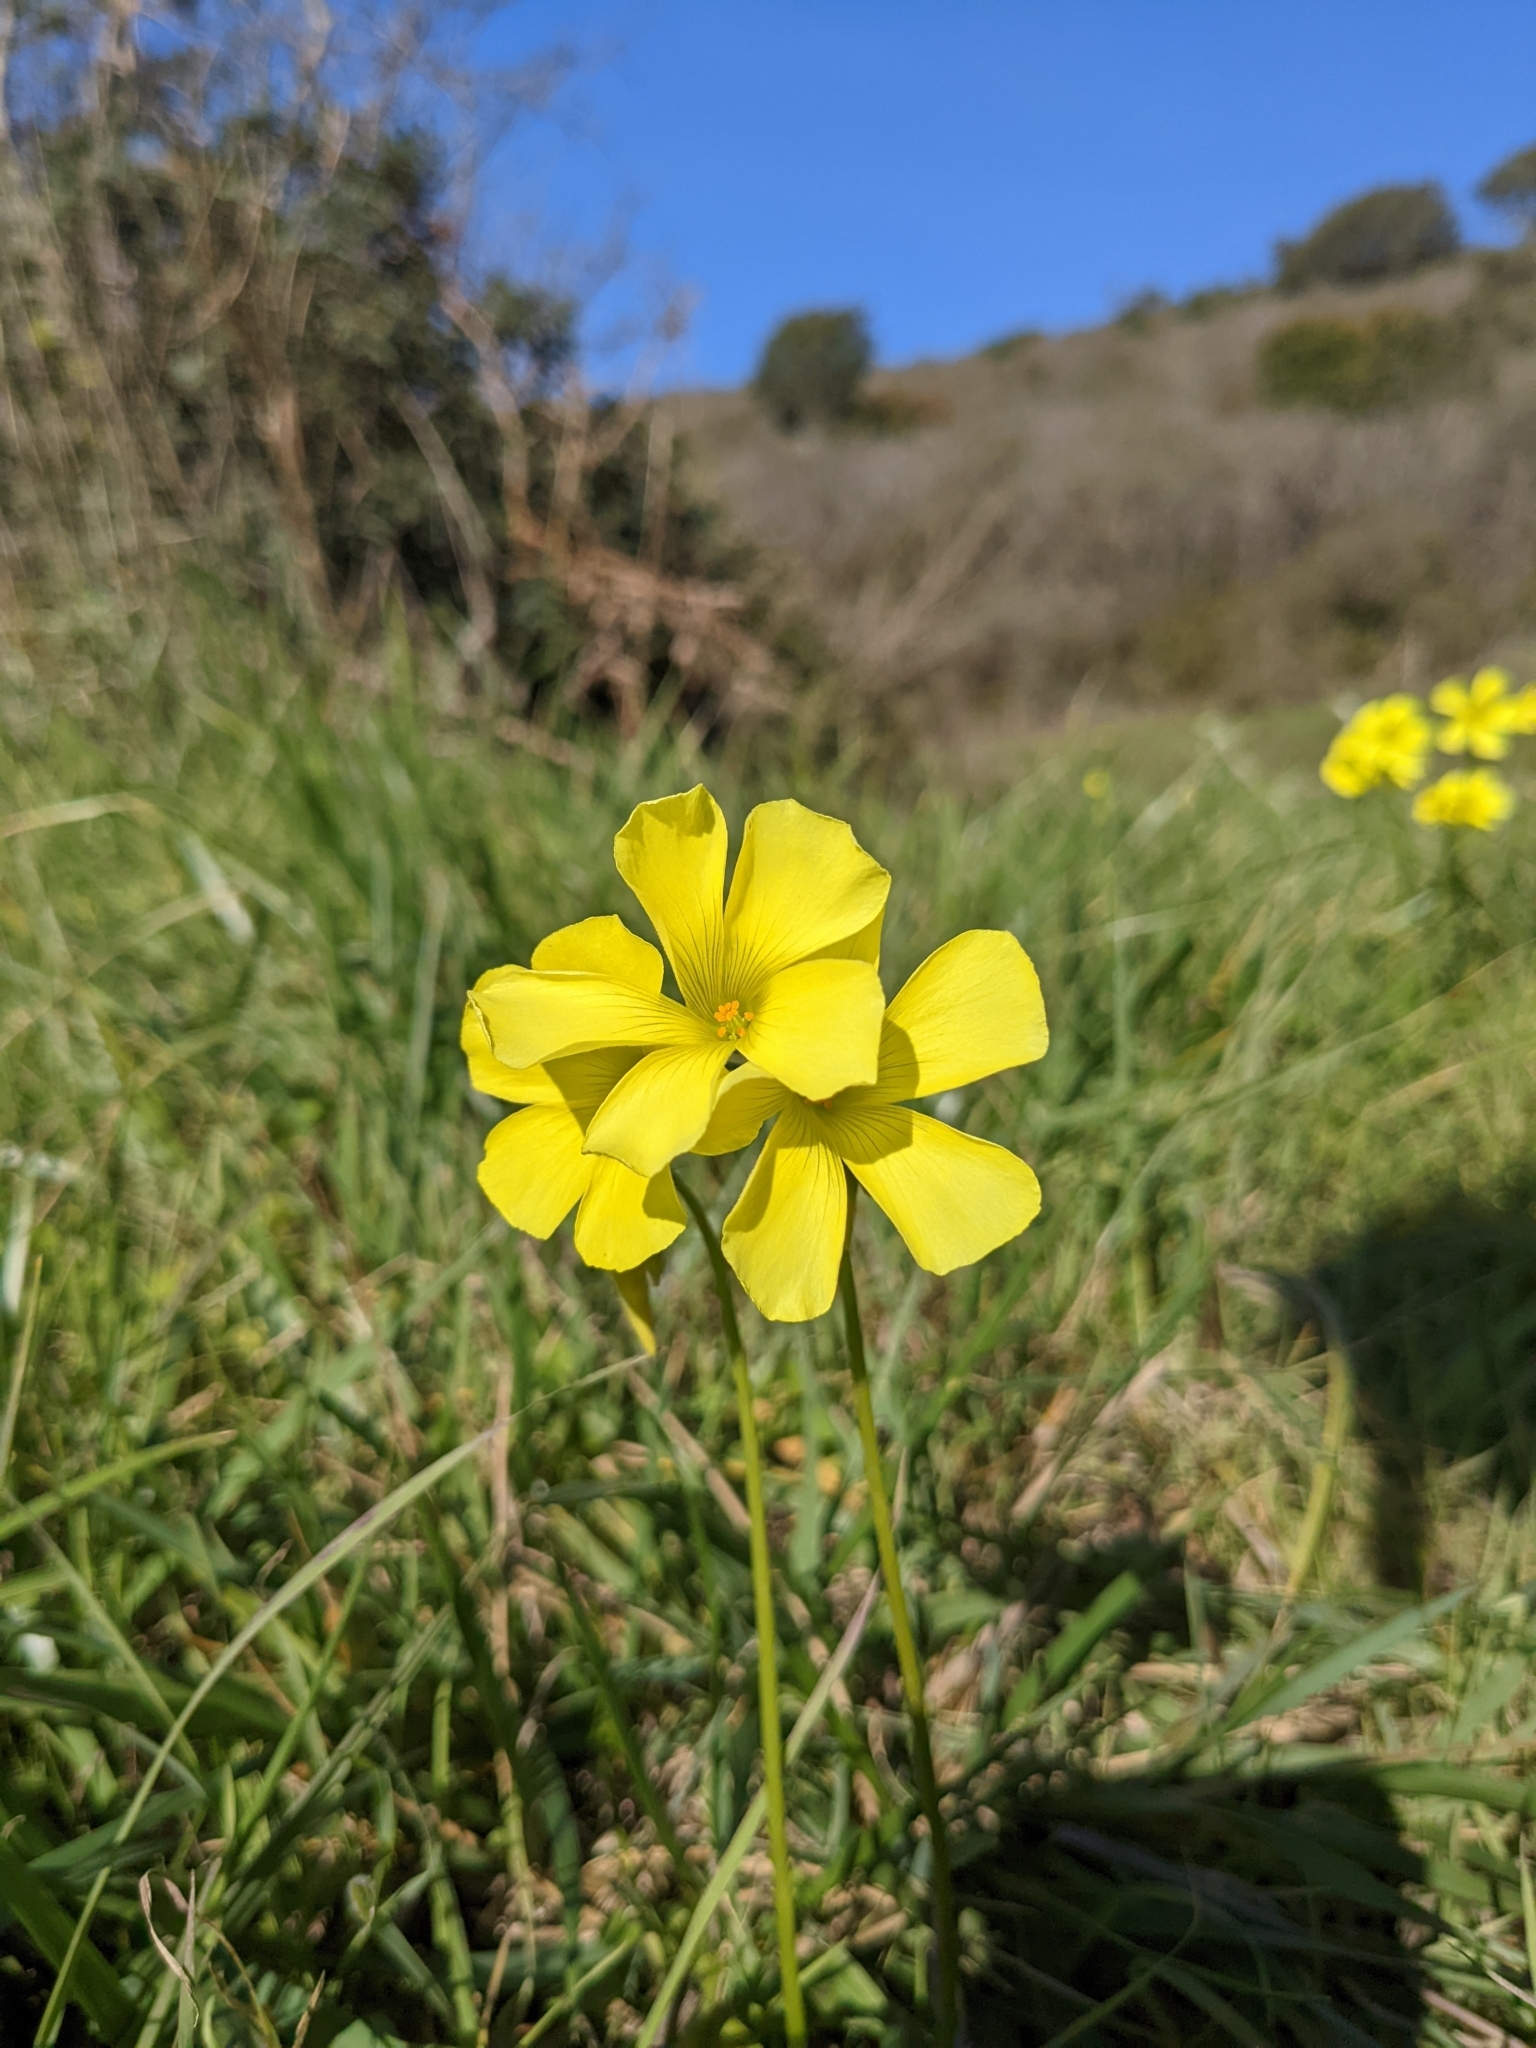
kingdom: Plantae
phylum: Tracheophyta
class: Magnoliopsida
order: Oxalidales
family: Oxalidaceae
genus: Oxalis
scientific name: Oxalis pes-caprae
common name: Bermuda-buttercup
